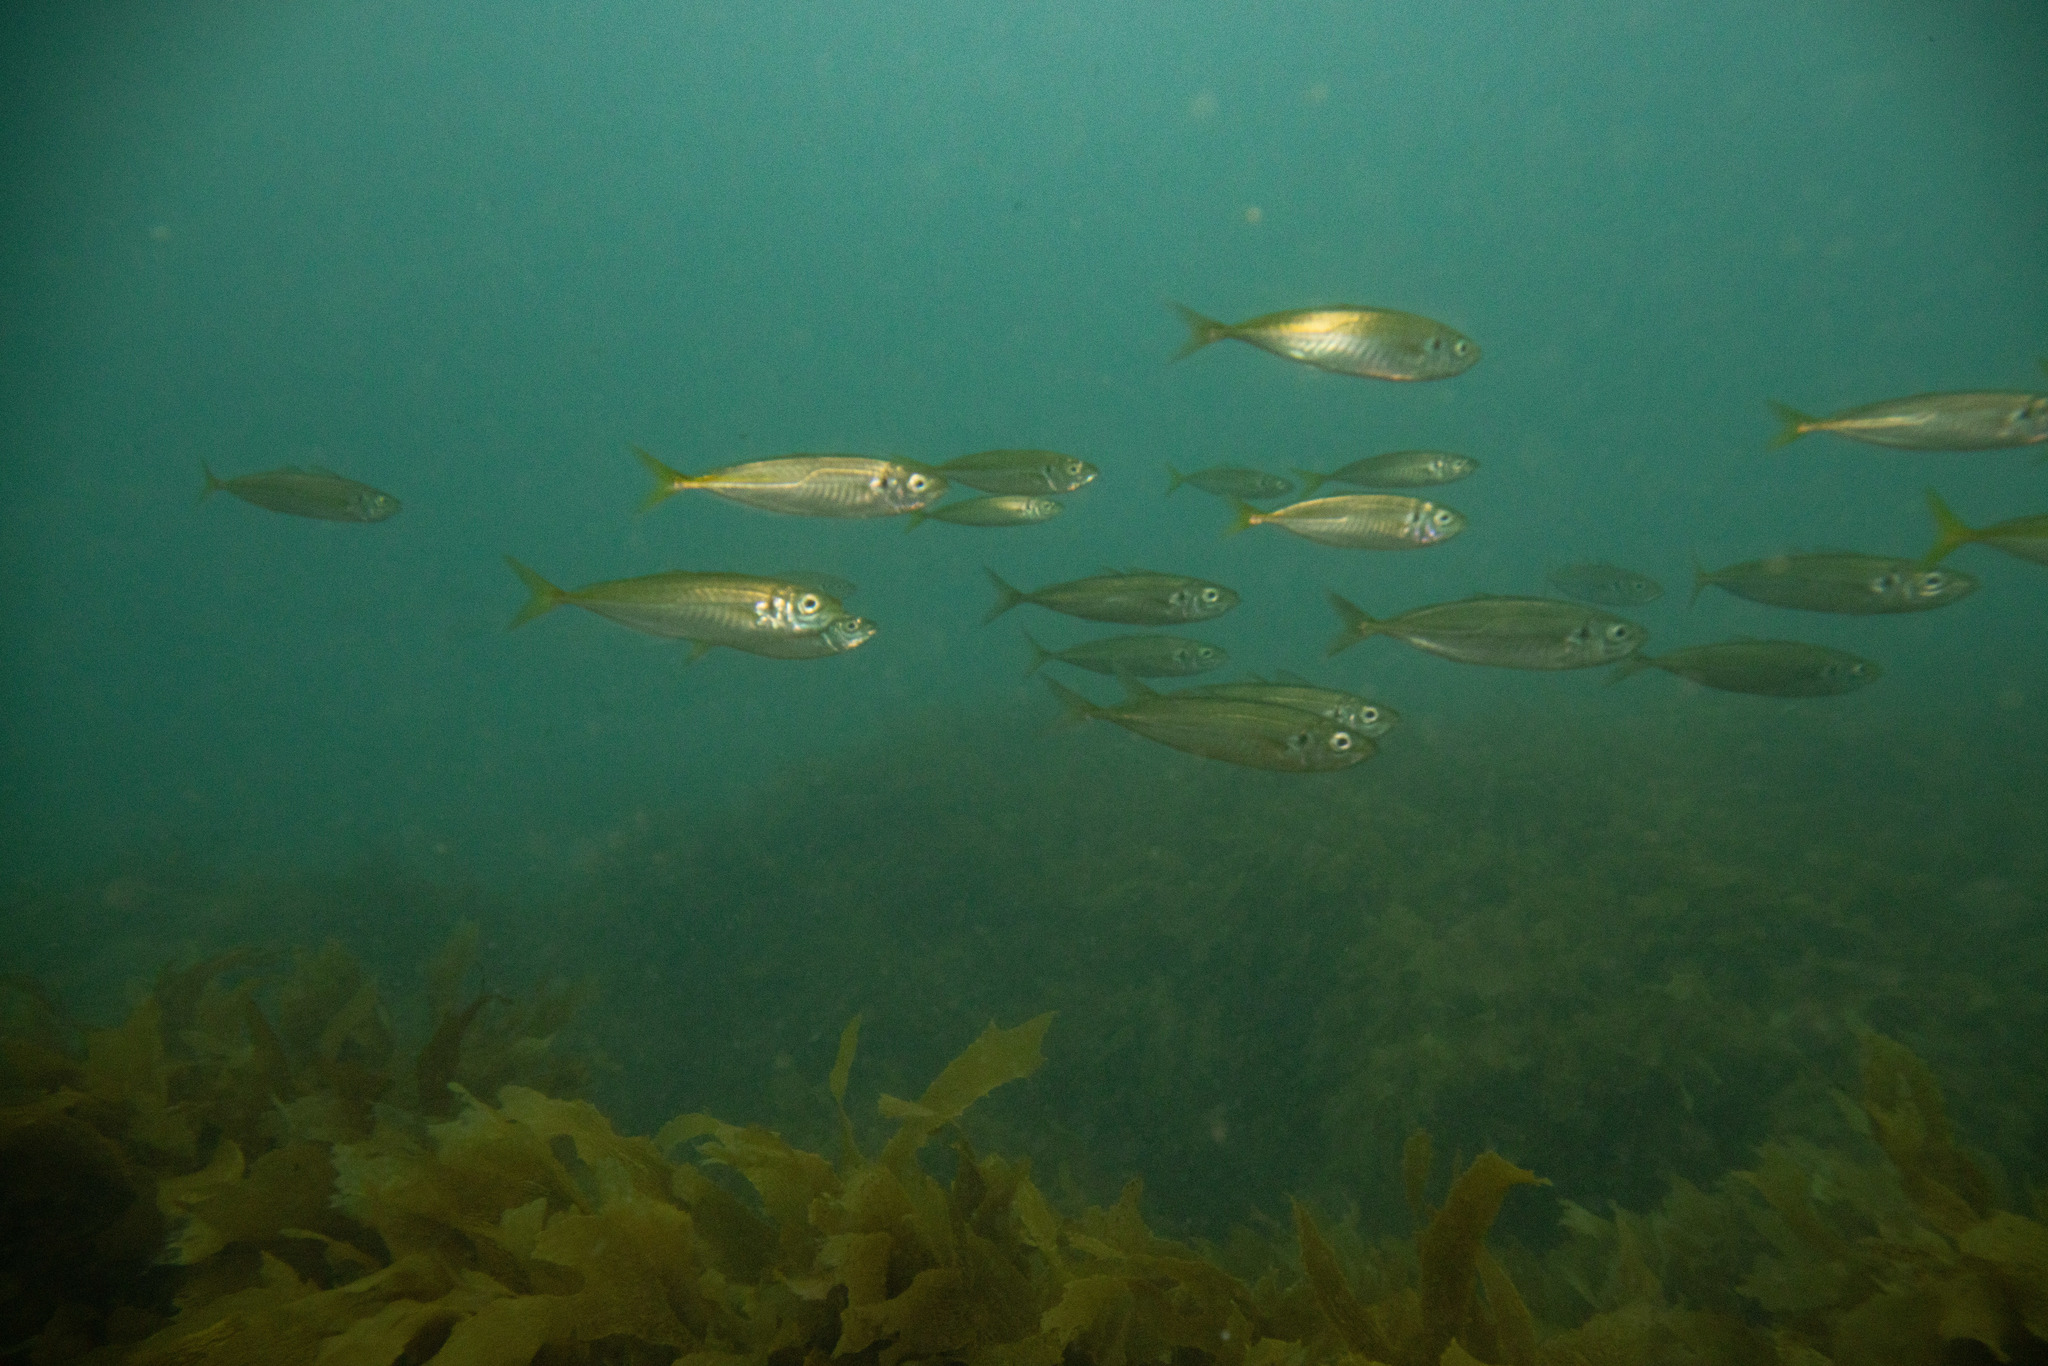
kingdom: Animalia
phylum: Chordata
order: Perciformes
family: Carangidae
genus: Trachurus
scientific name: Trachurus novaezelandiae
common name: Yellowtail horse mackerel
